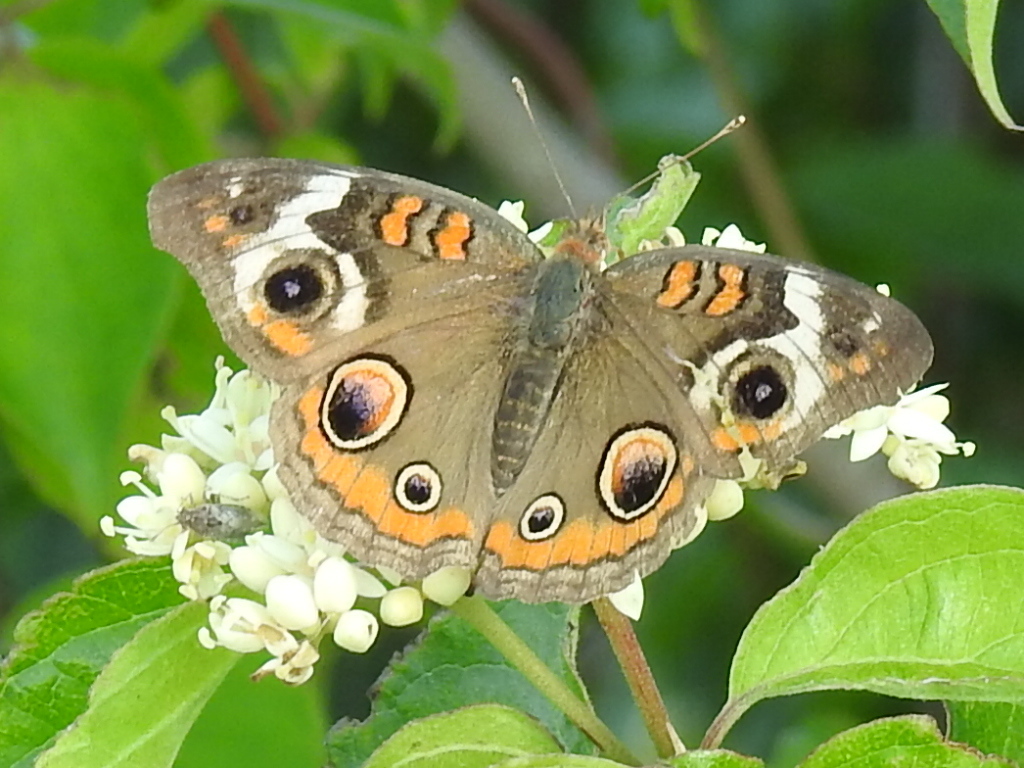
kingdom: Animalia
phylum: Arthropoda
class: Insecta
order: Lepidoptera
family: Nymphalidae
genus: Junonia
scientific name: Junonia coenia
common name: Common buckeye
